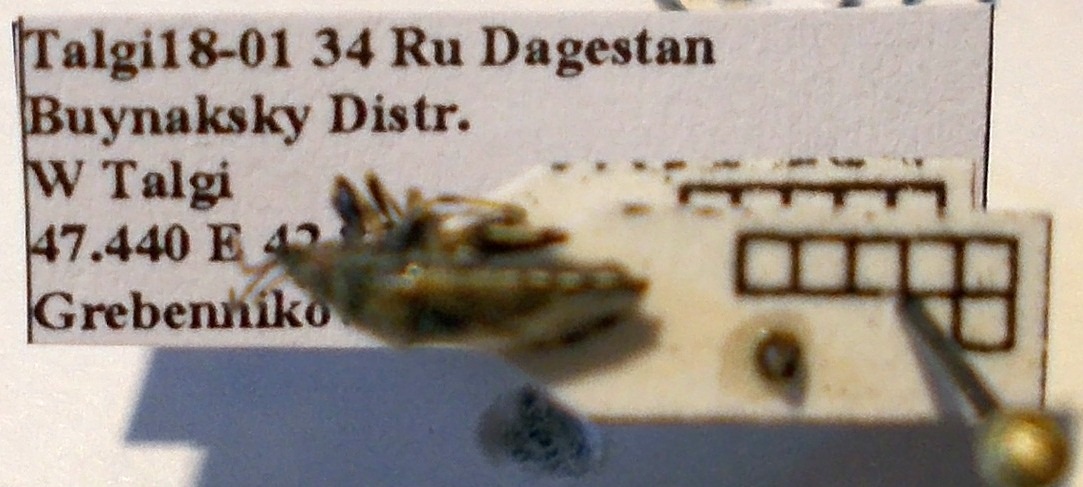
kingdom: Animalia
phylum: Arthropoda
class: Insecta
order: Hemiptera
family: Heterogastridae
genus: Heterogaster
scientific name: Heterogaster cathariae
